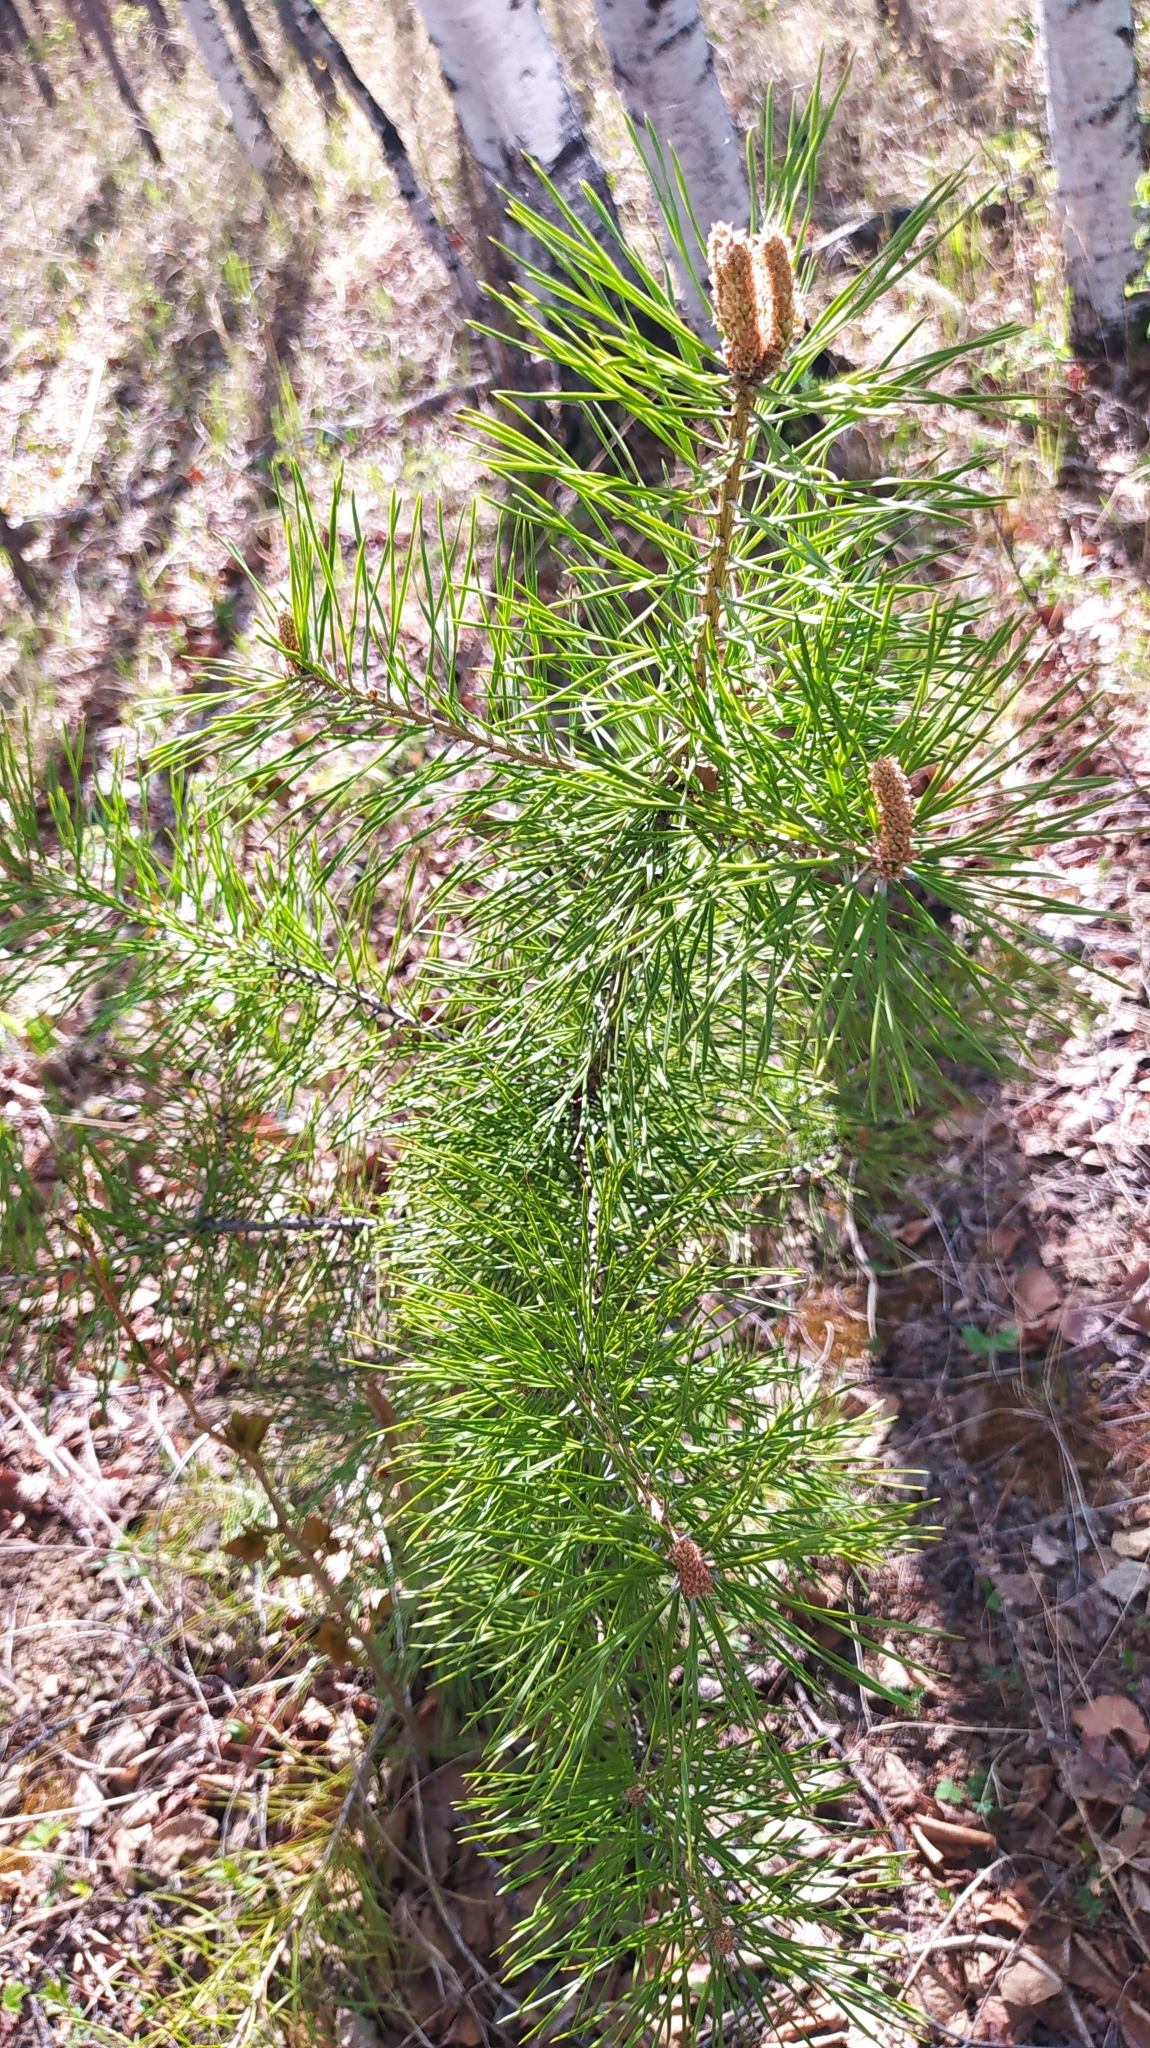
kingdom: Plantae
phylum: Tracheophyta
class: Pinopsida
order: Pinales
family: Pinaceae
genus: Pinus
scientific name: Pinus sylvestris
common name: Scots pine
